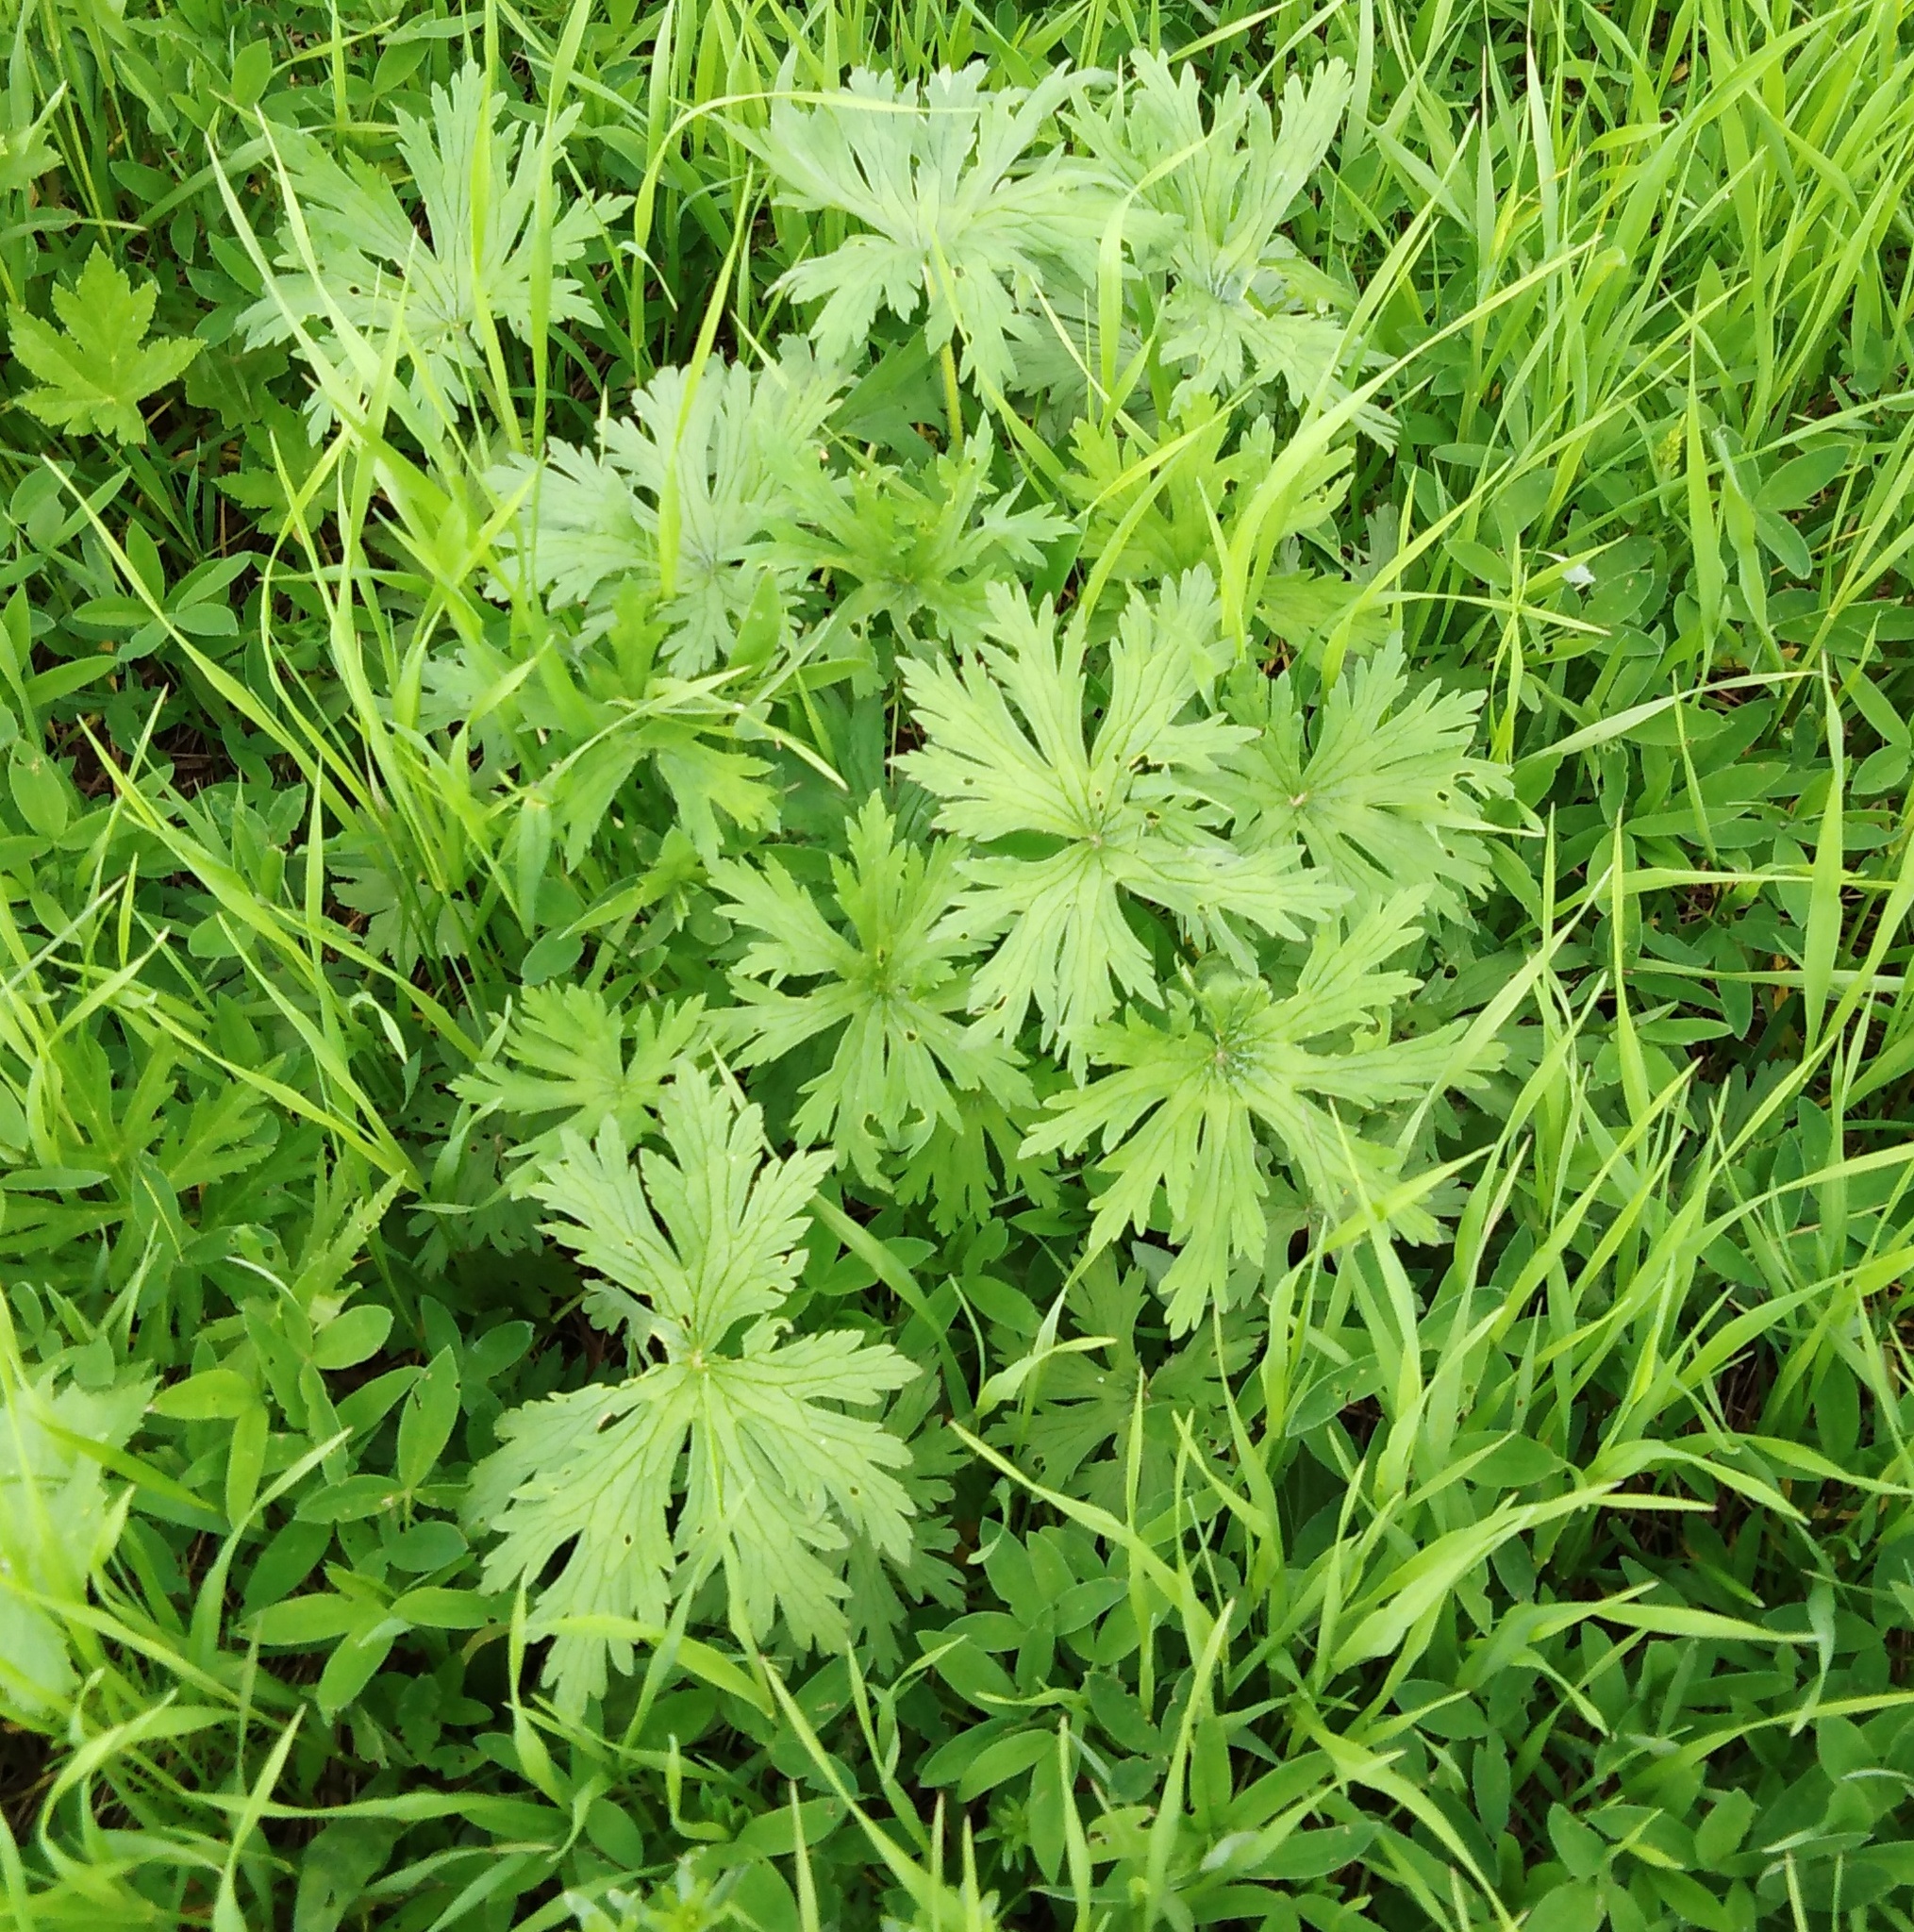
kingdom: Plantae
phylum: Tracheophyta
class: Magnoliopsida
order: Geraniales
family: Geraniaceae
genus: Geranium
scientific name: Geranium pratense
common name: Meadow crane's-bill
